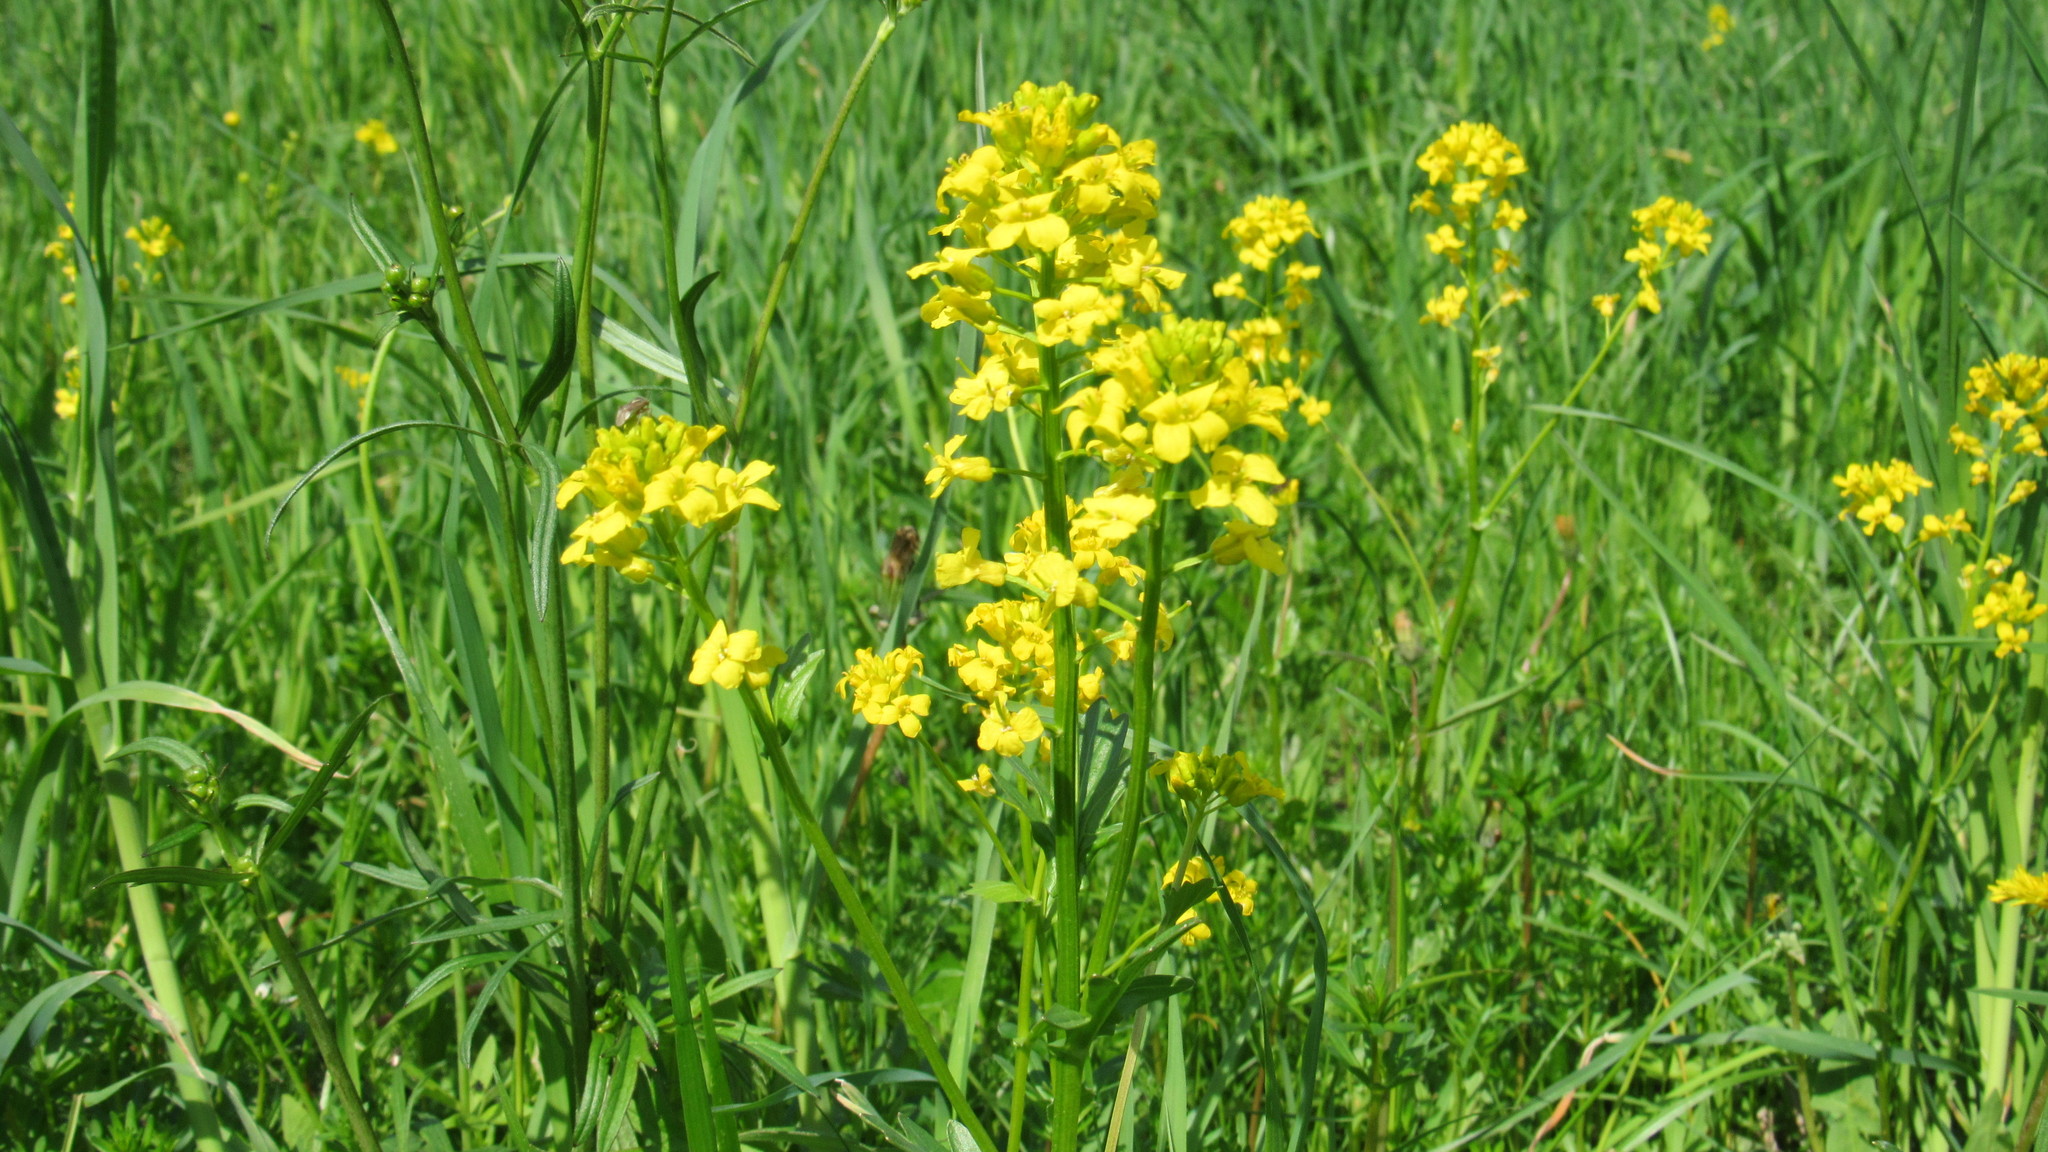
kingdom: Plantae
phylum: Tracheophyta
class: Magnoliopsida
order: Brassicales
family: Brassicaceae
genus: Barbarea
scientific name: Barbarea vulgaris
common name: Cressy-greens
